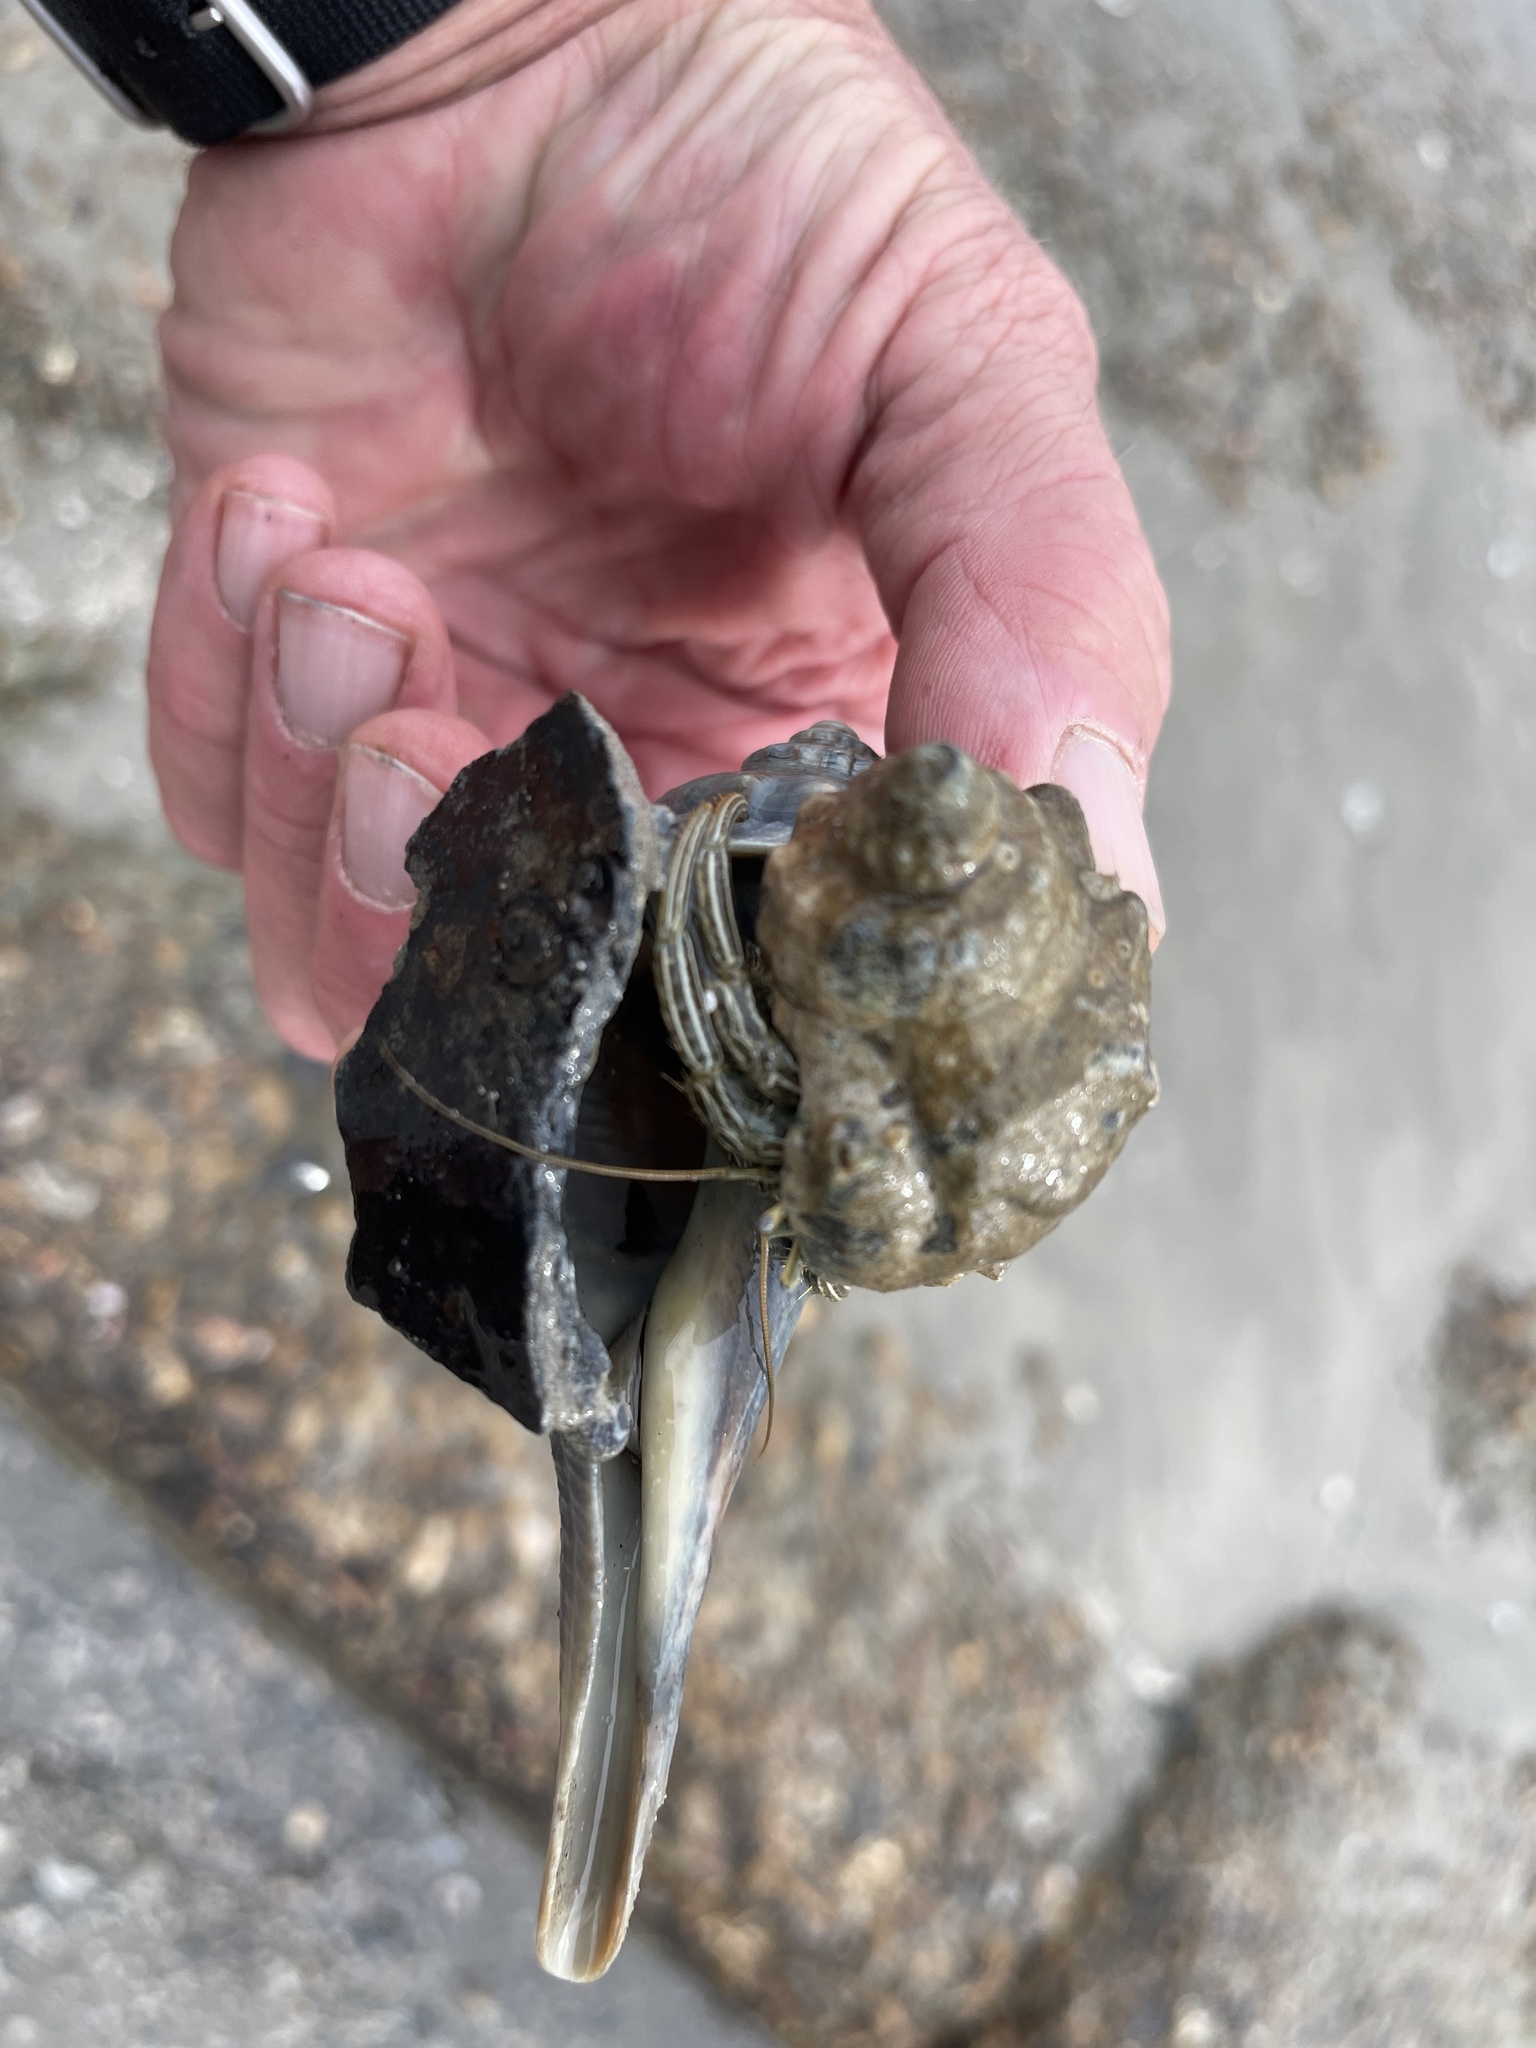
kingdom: Animalia
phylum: Arthropoda
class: Malacostraca
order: Decapoda
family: Diogenidae
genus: Clibanarius
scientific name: Clibanarius vittatus
